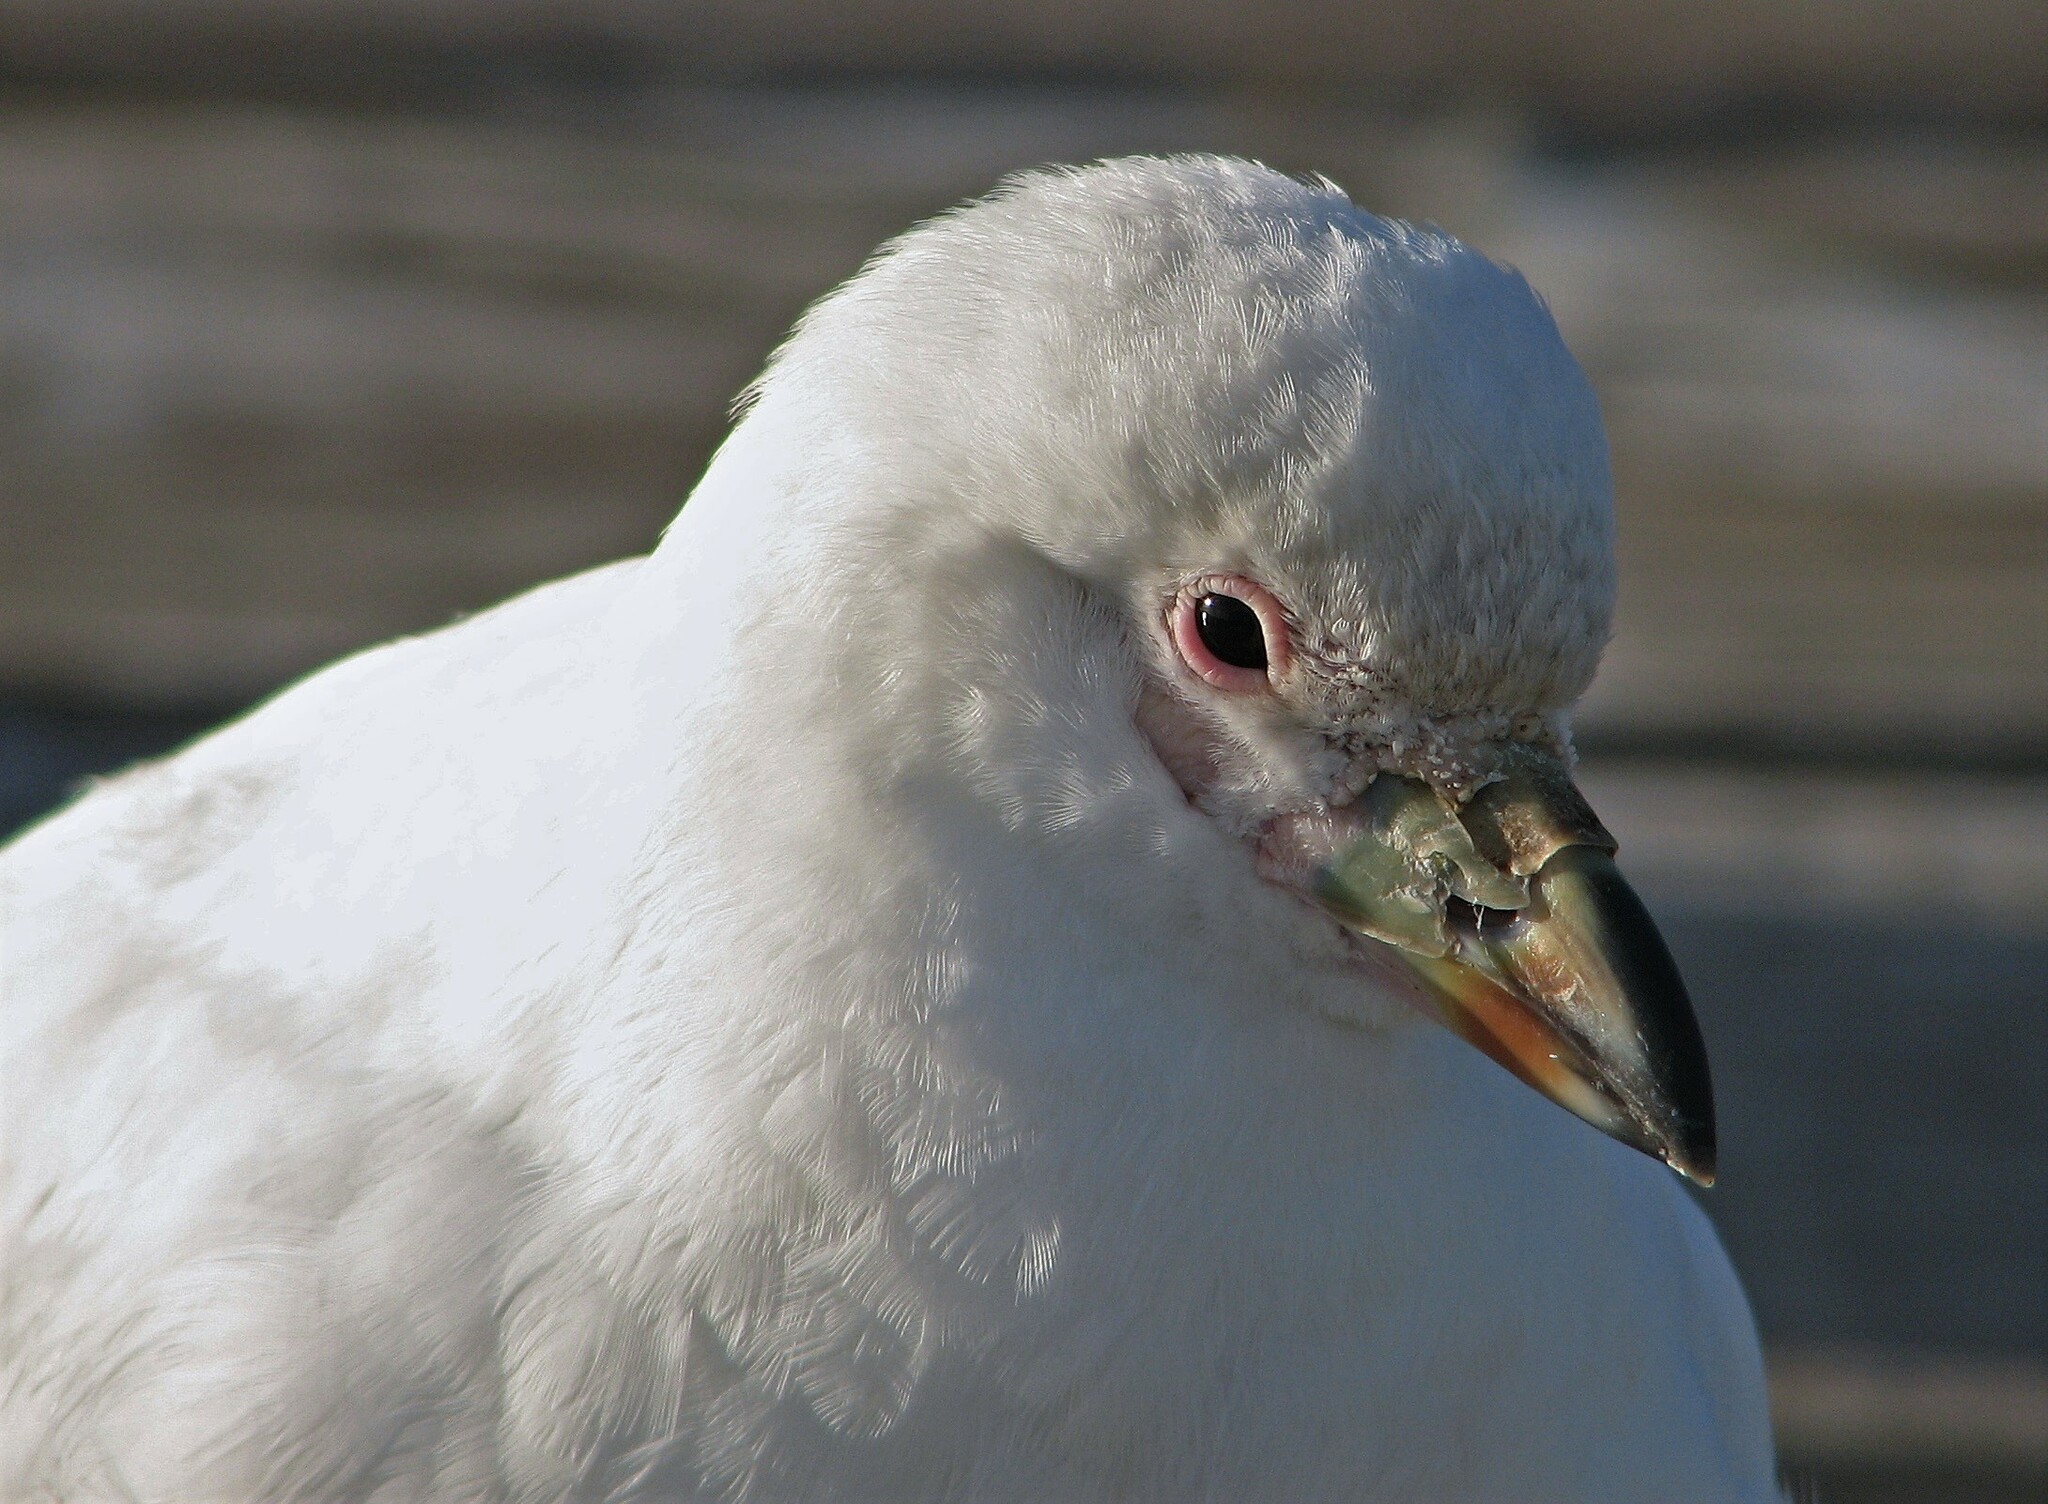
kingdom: Animalia
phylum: Chordata
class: Aves
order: Charadriiformes
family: Chionidae
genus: Chionis
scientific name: Chionis albus
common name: Snowy sheathbill
